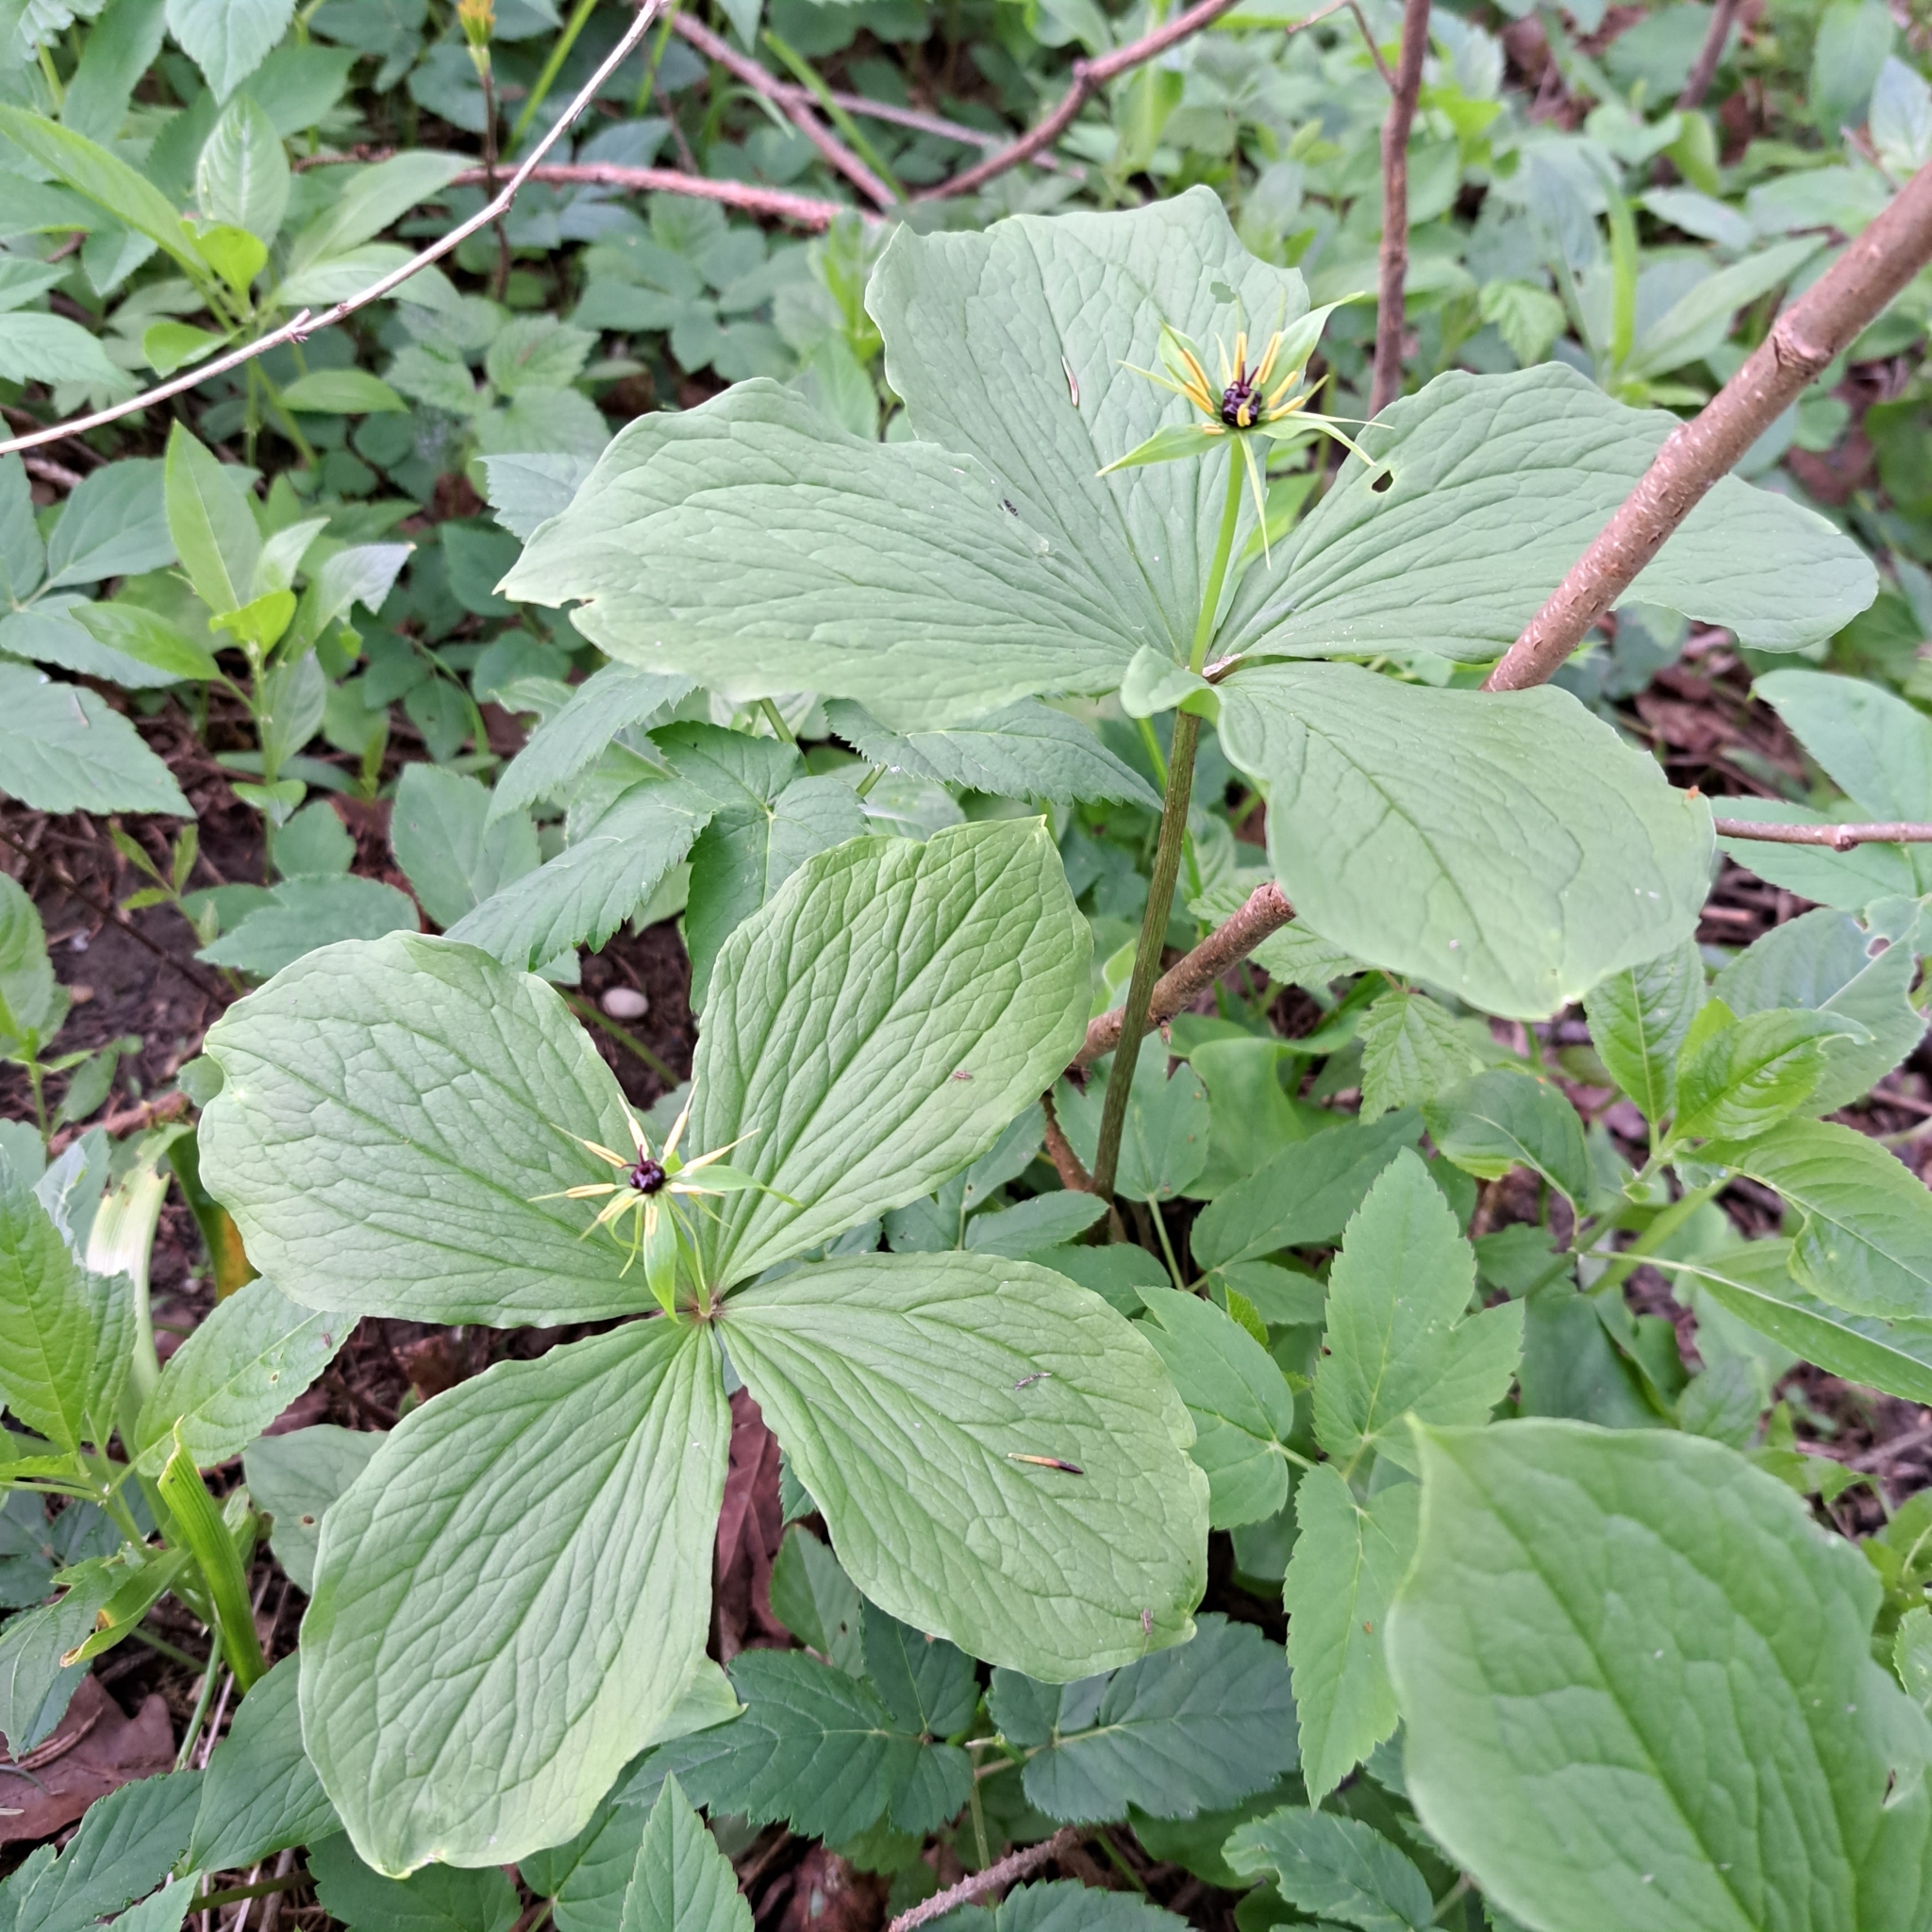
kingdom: Plantae
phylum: Tracheophyta
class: Liliopsida
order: Liliales
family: Melanthiaceae
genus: Paris
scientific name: Paris quadrifolia
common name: Herb-paris
